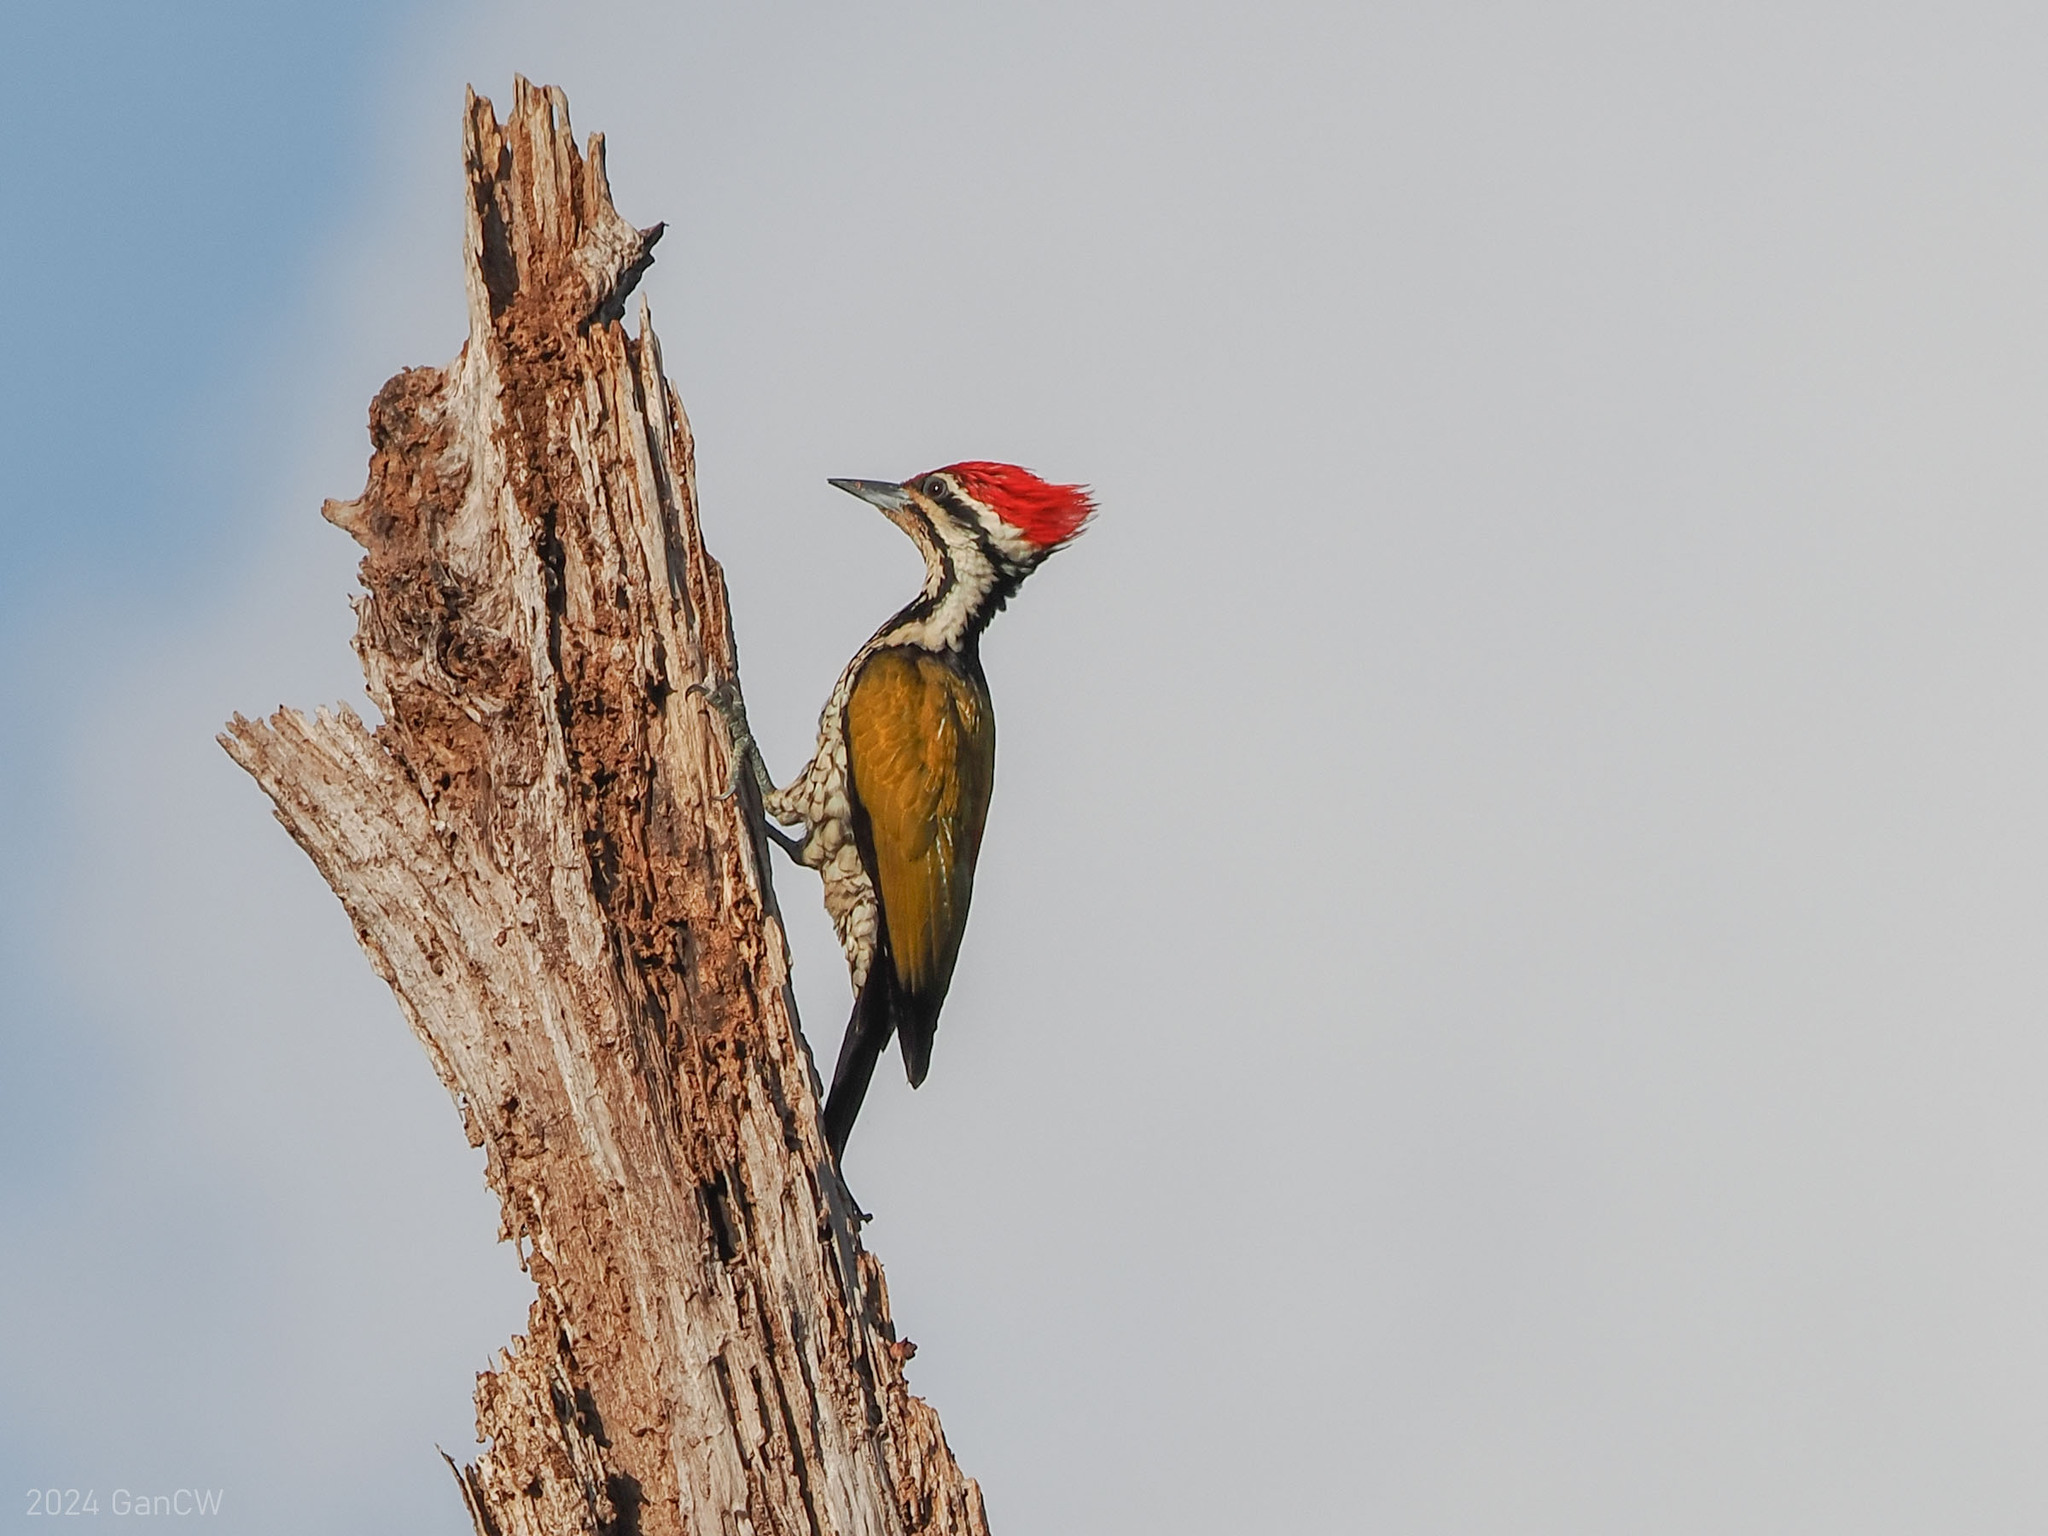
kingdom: Animalia
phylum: Chordata
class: Aves
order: Piciformes
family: Picidae
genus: Dinopium
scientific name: Dinopium javanense
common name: Common flameback
